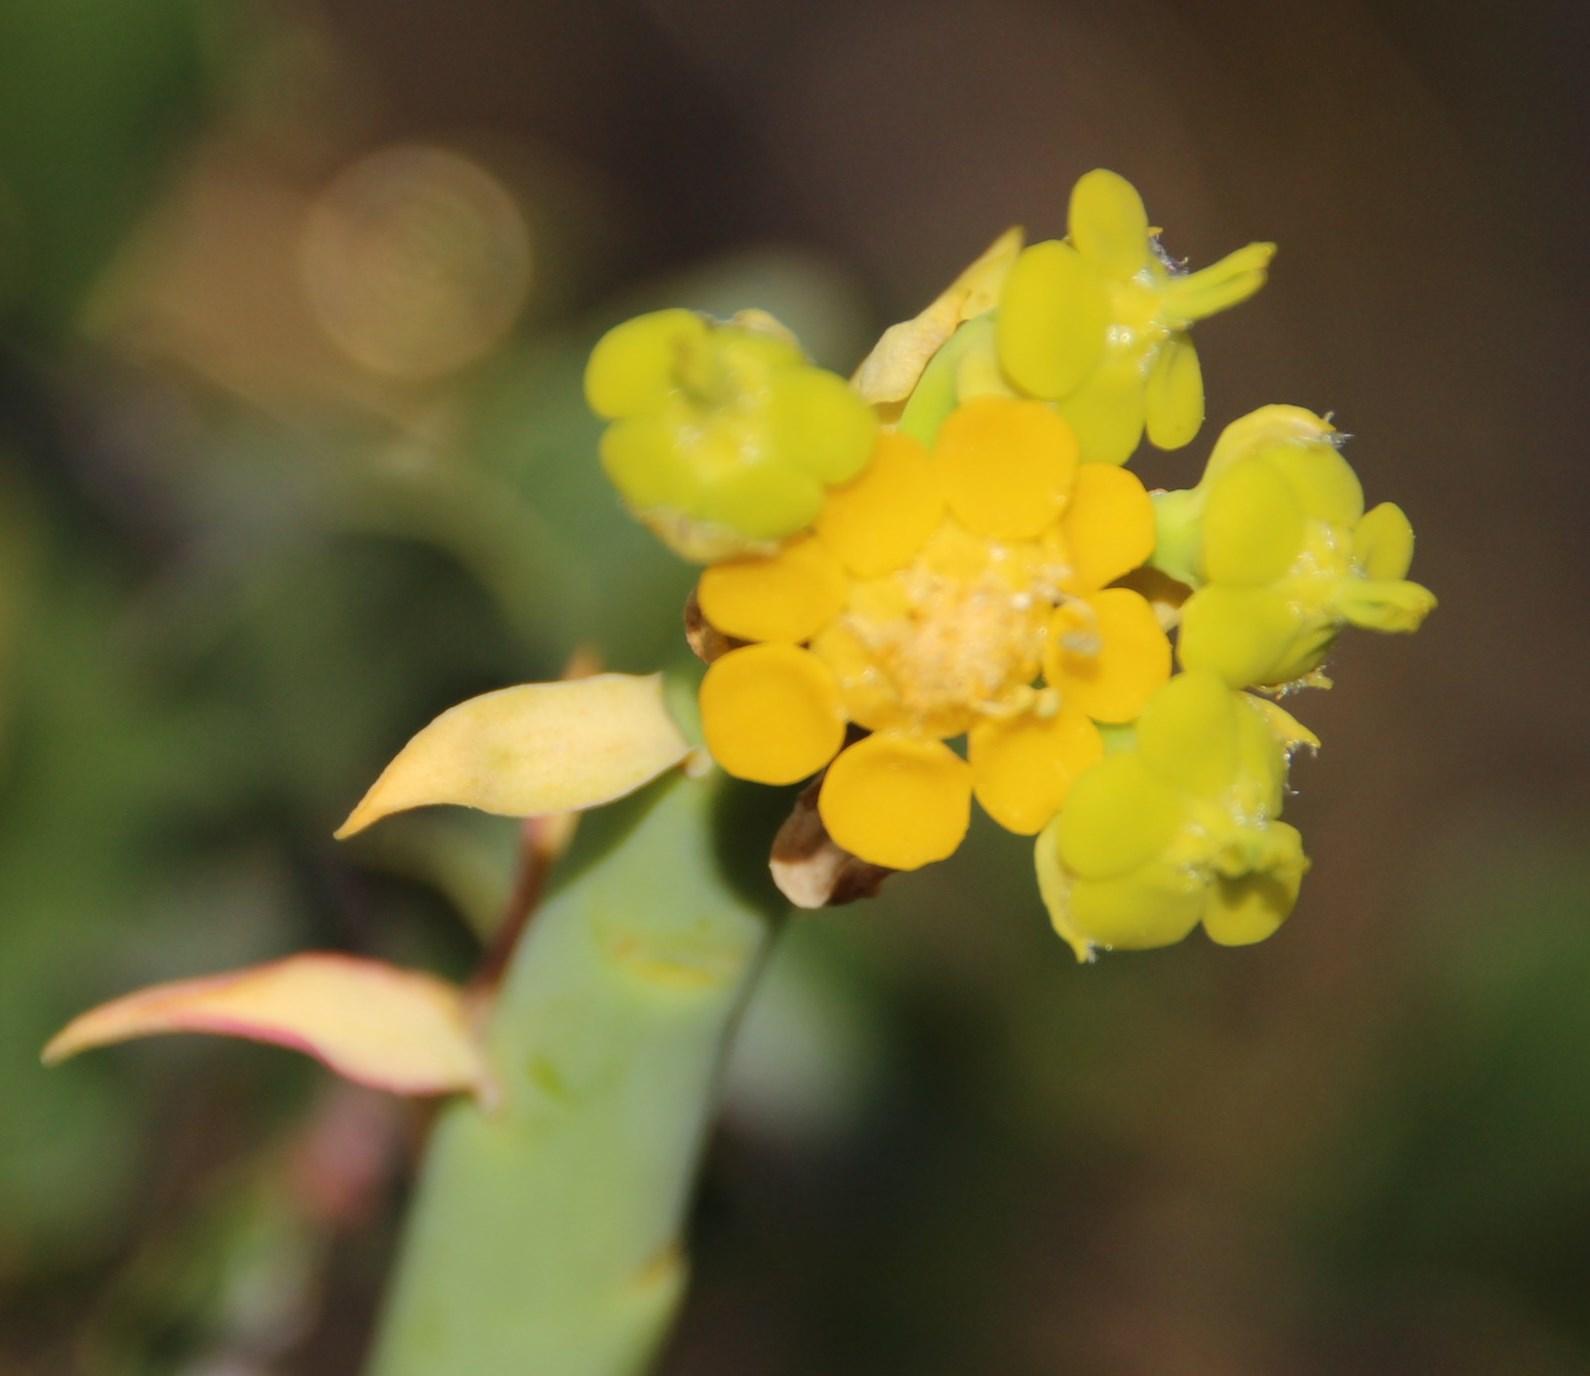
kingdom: Plantae
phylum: Tracheophyta
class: Magnoliopsida
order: Malpighiales
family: Euphorbiaceae
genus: Euphorbia
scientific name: Euphorbia mauritanica
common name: Jackal's-food
